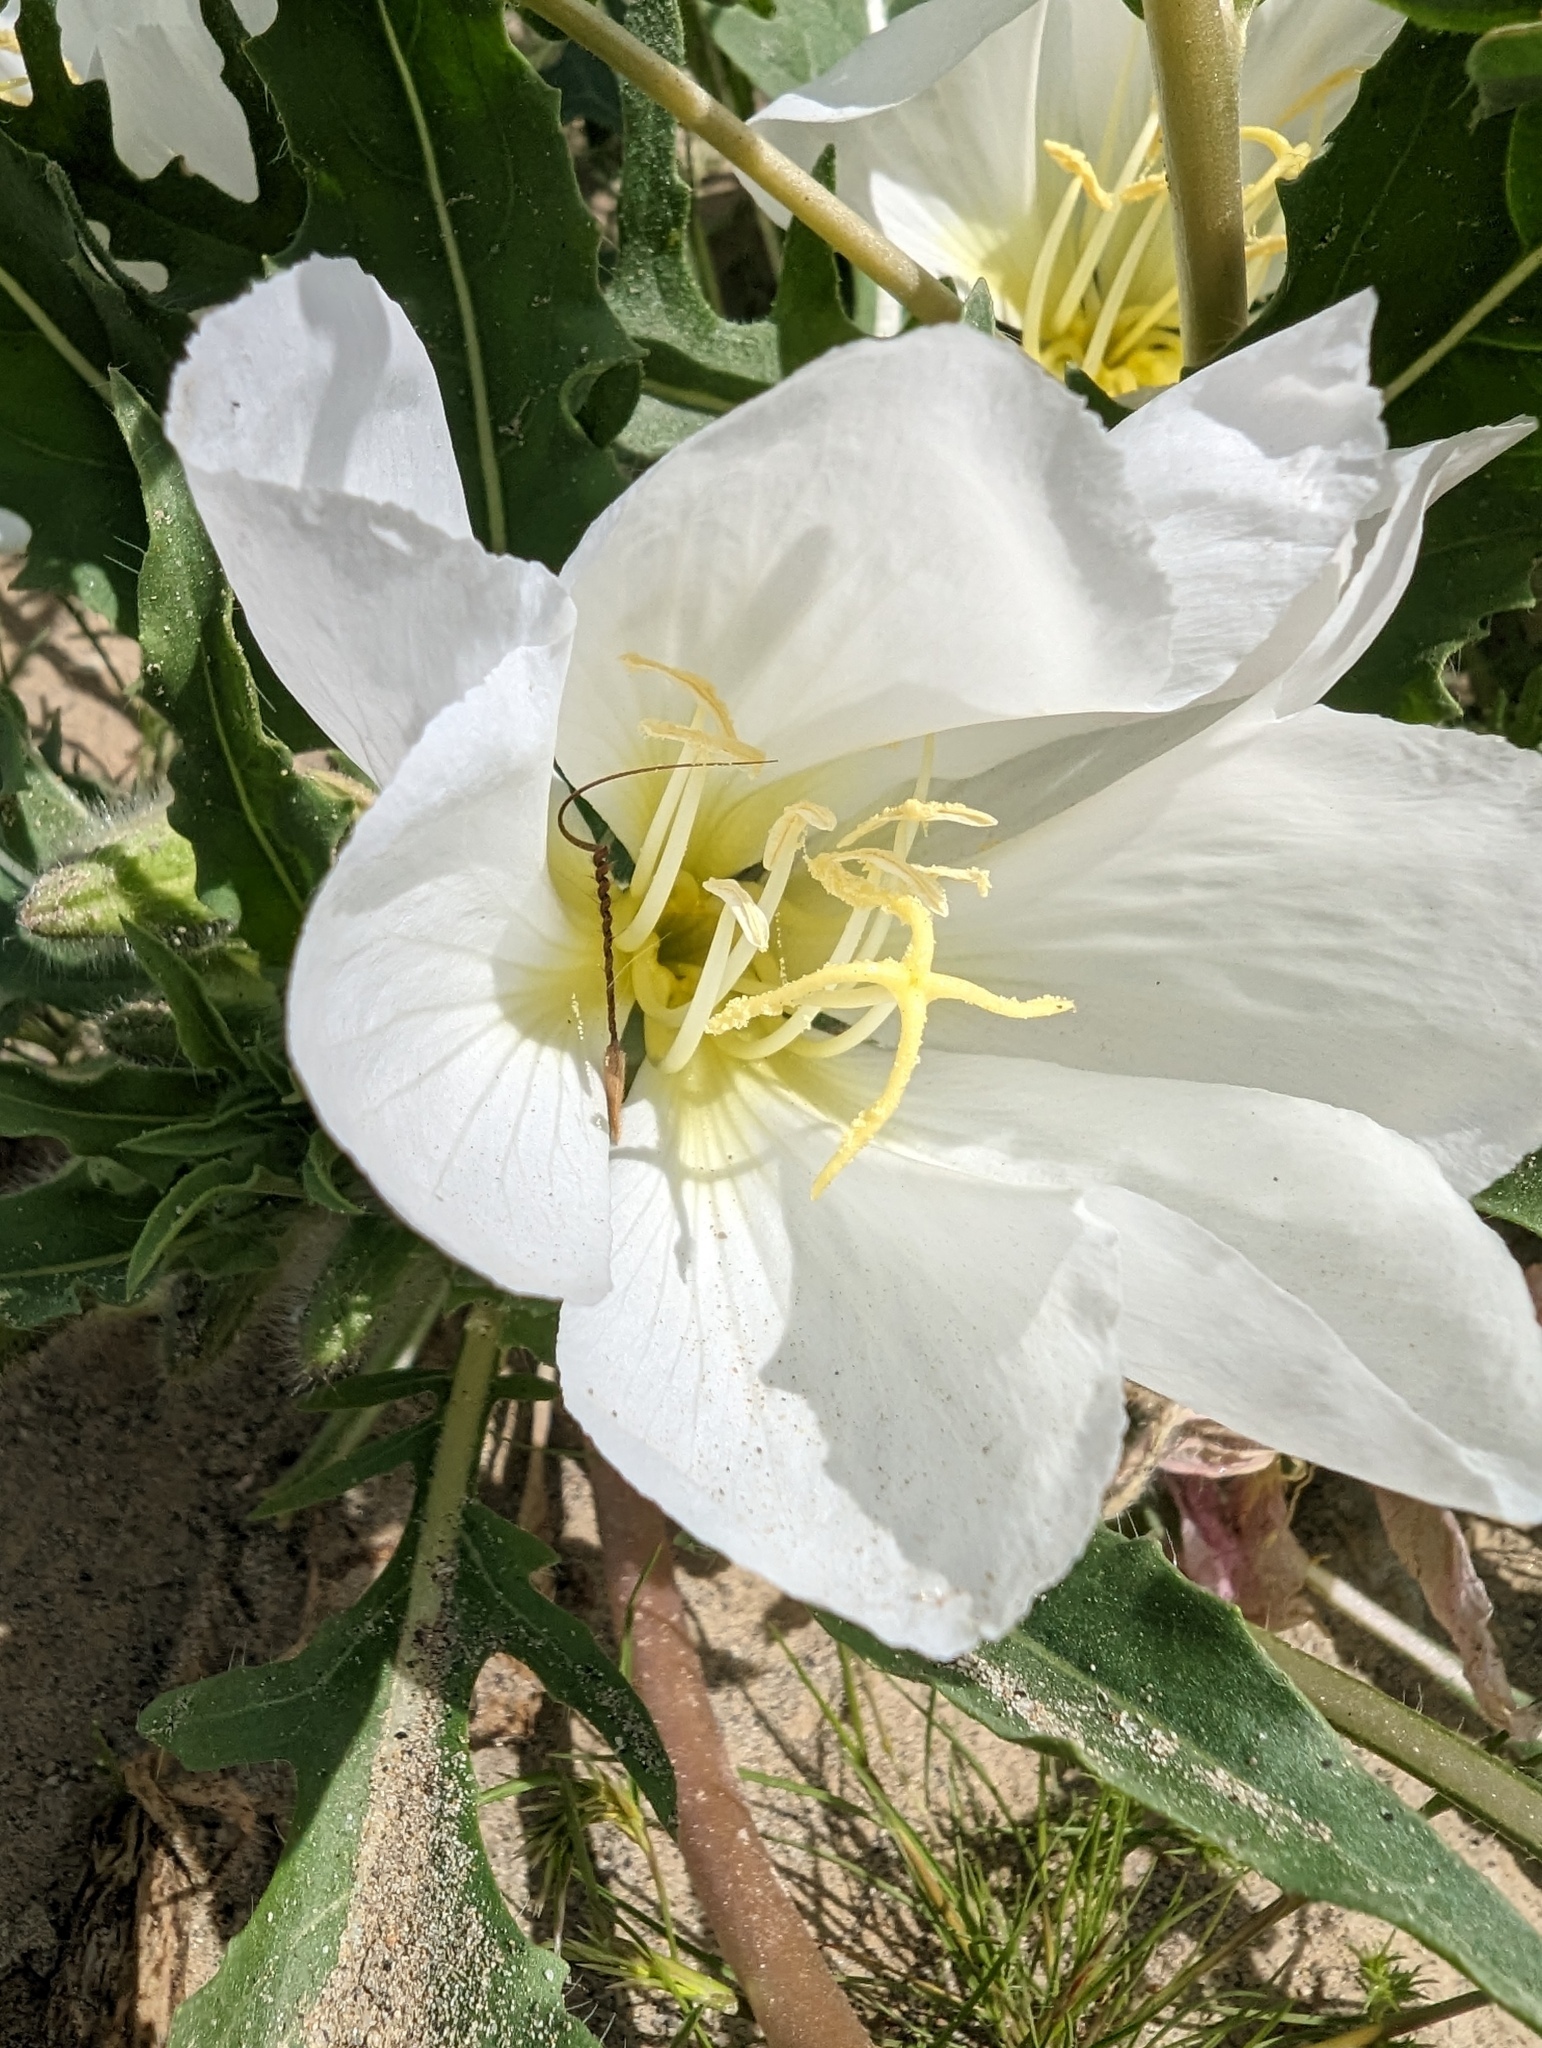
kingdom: Plantae
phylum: Tracheophyta
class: Magnoliopsida
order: Myrtales
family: Onagraceae
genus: Oenothera
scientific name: Oenothera deltoides
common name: Basket evening-primrose
